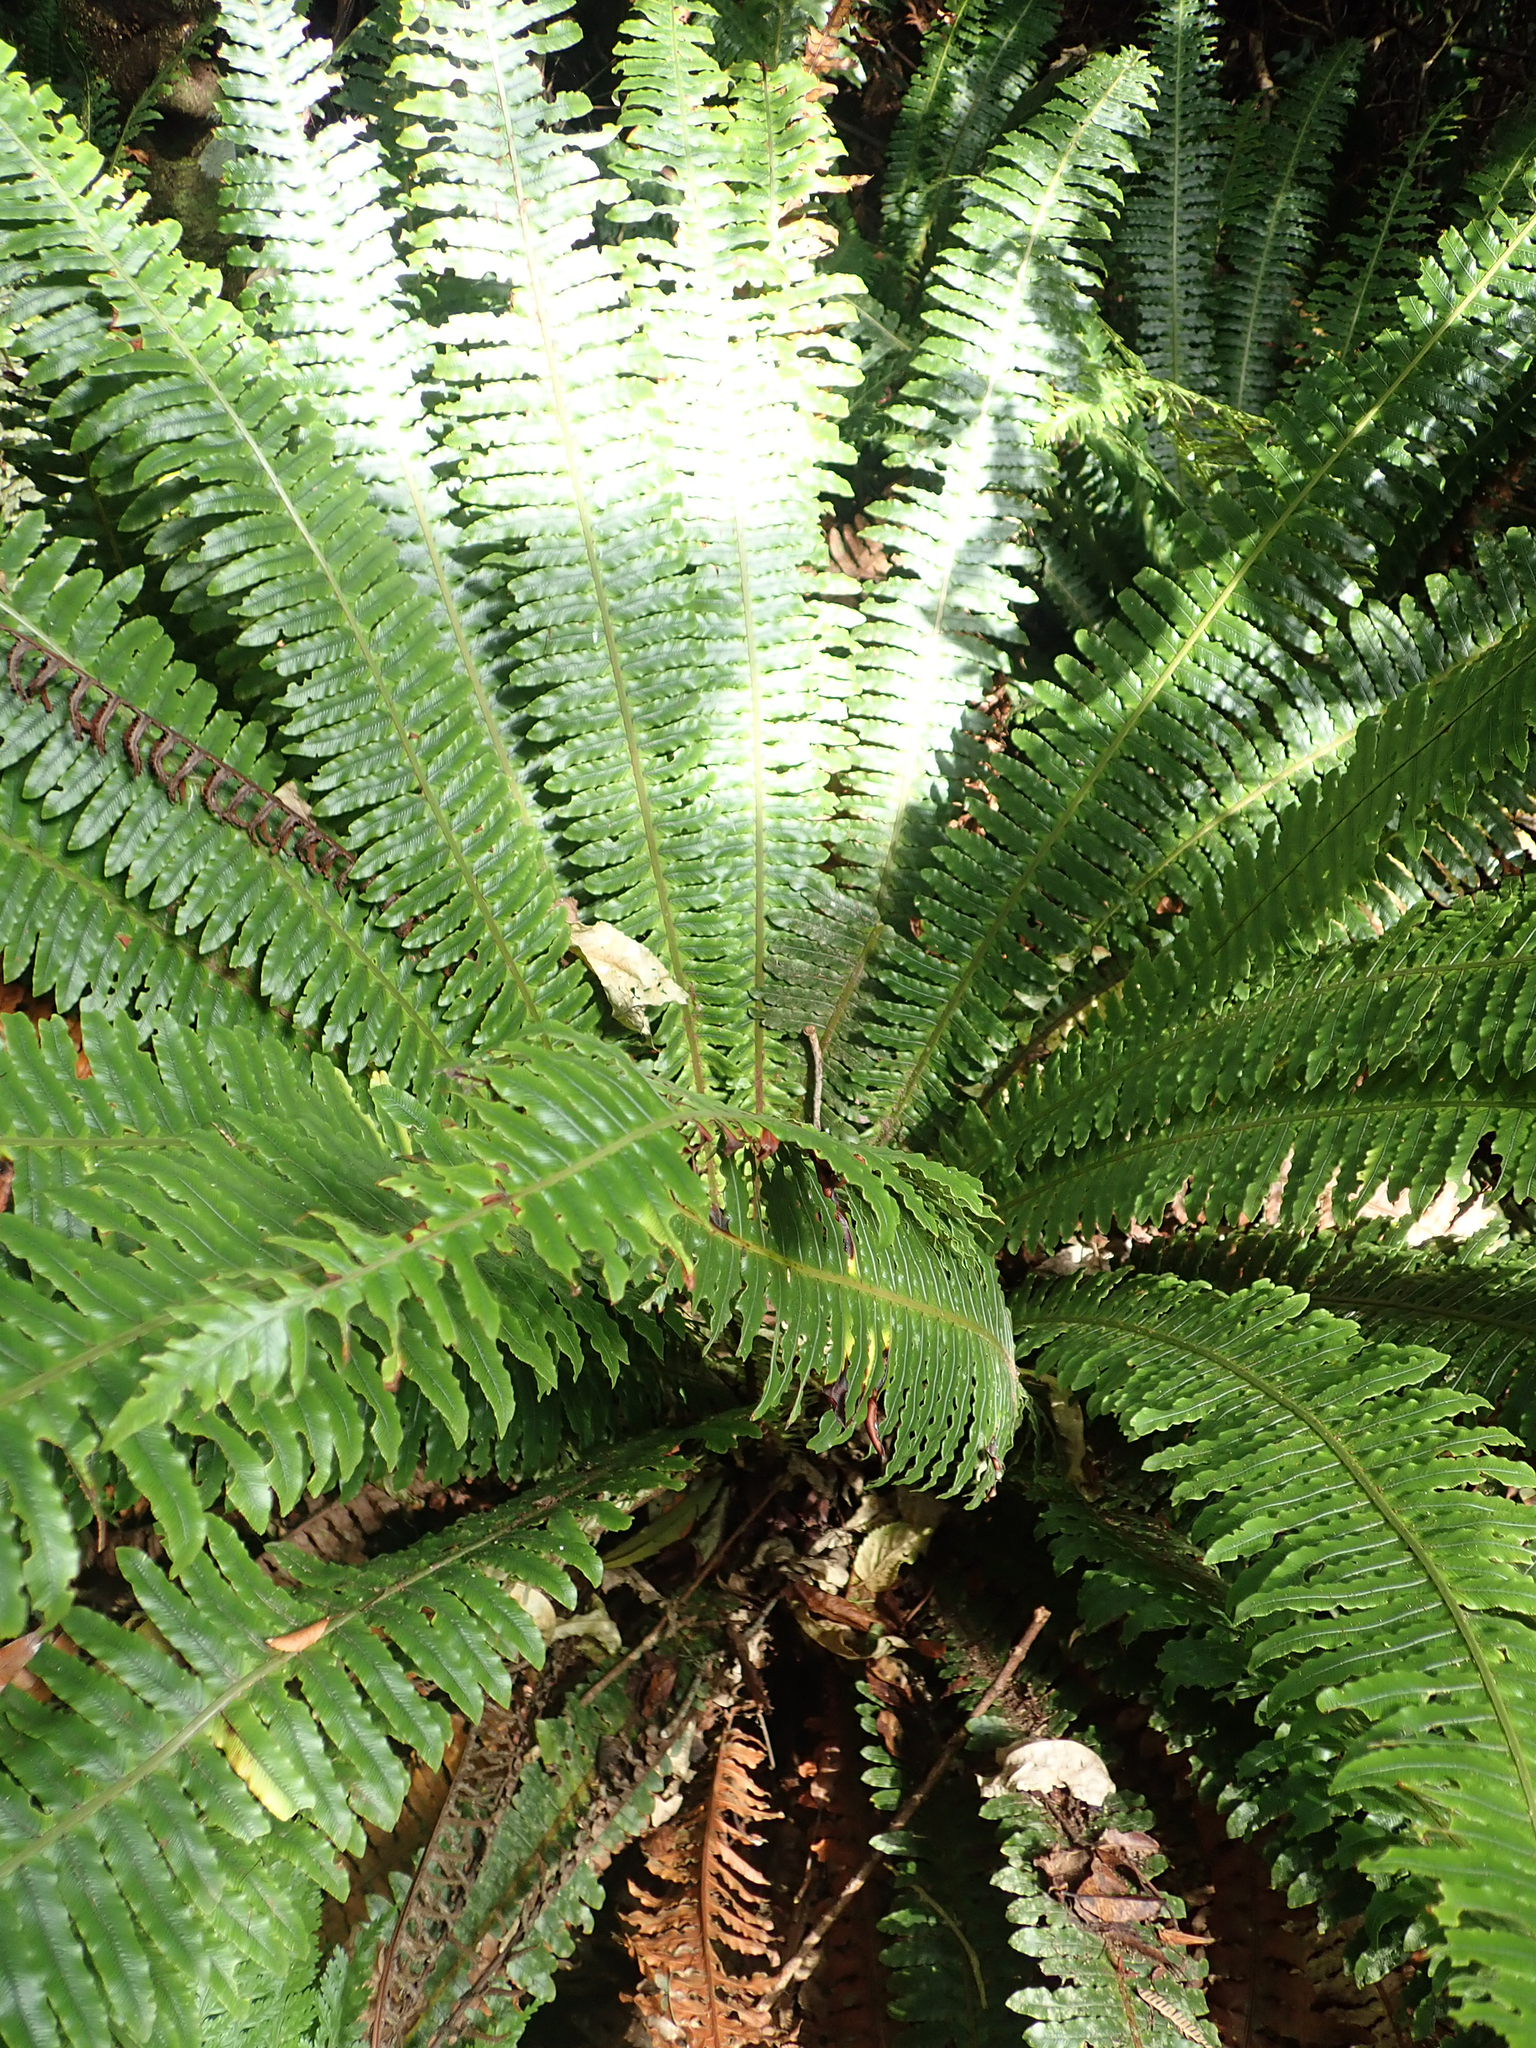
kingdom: Plantae
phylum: Tracheophyta
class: Polypodiopsida
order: Polypodiales
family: Blechnaceae
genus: Lomaria
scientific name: Lomaria discolor
